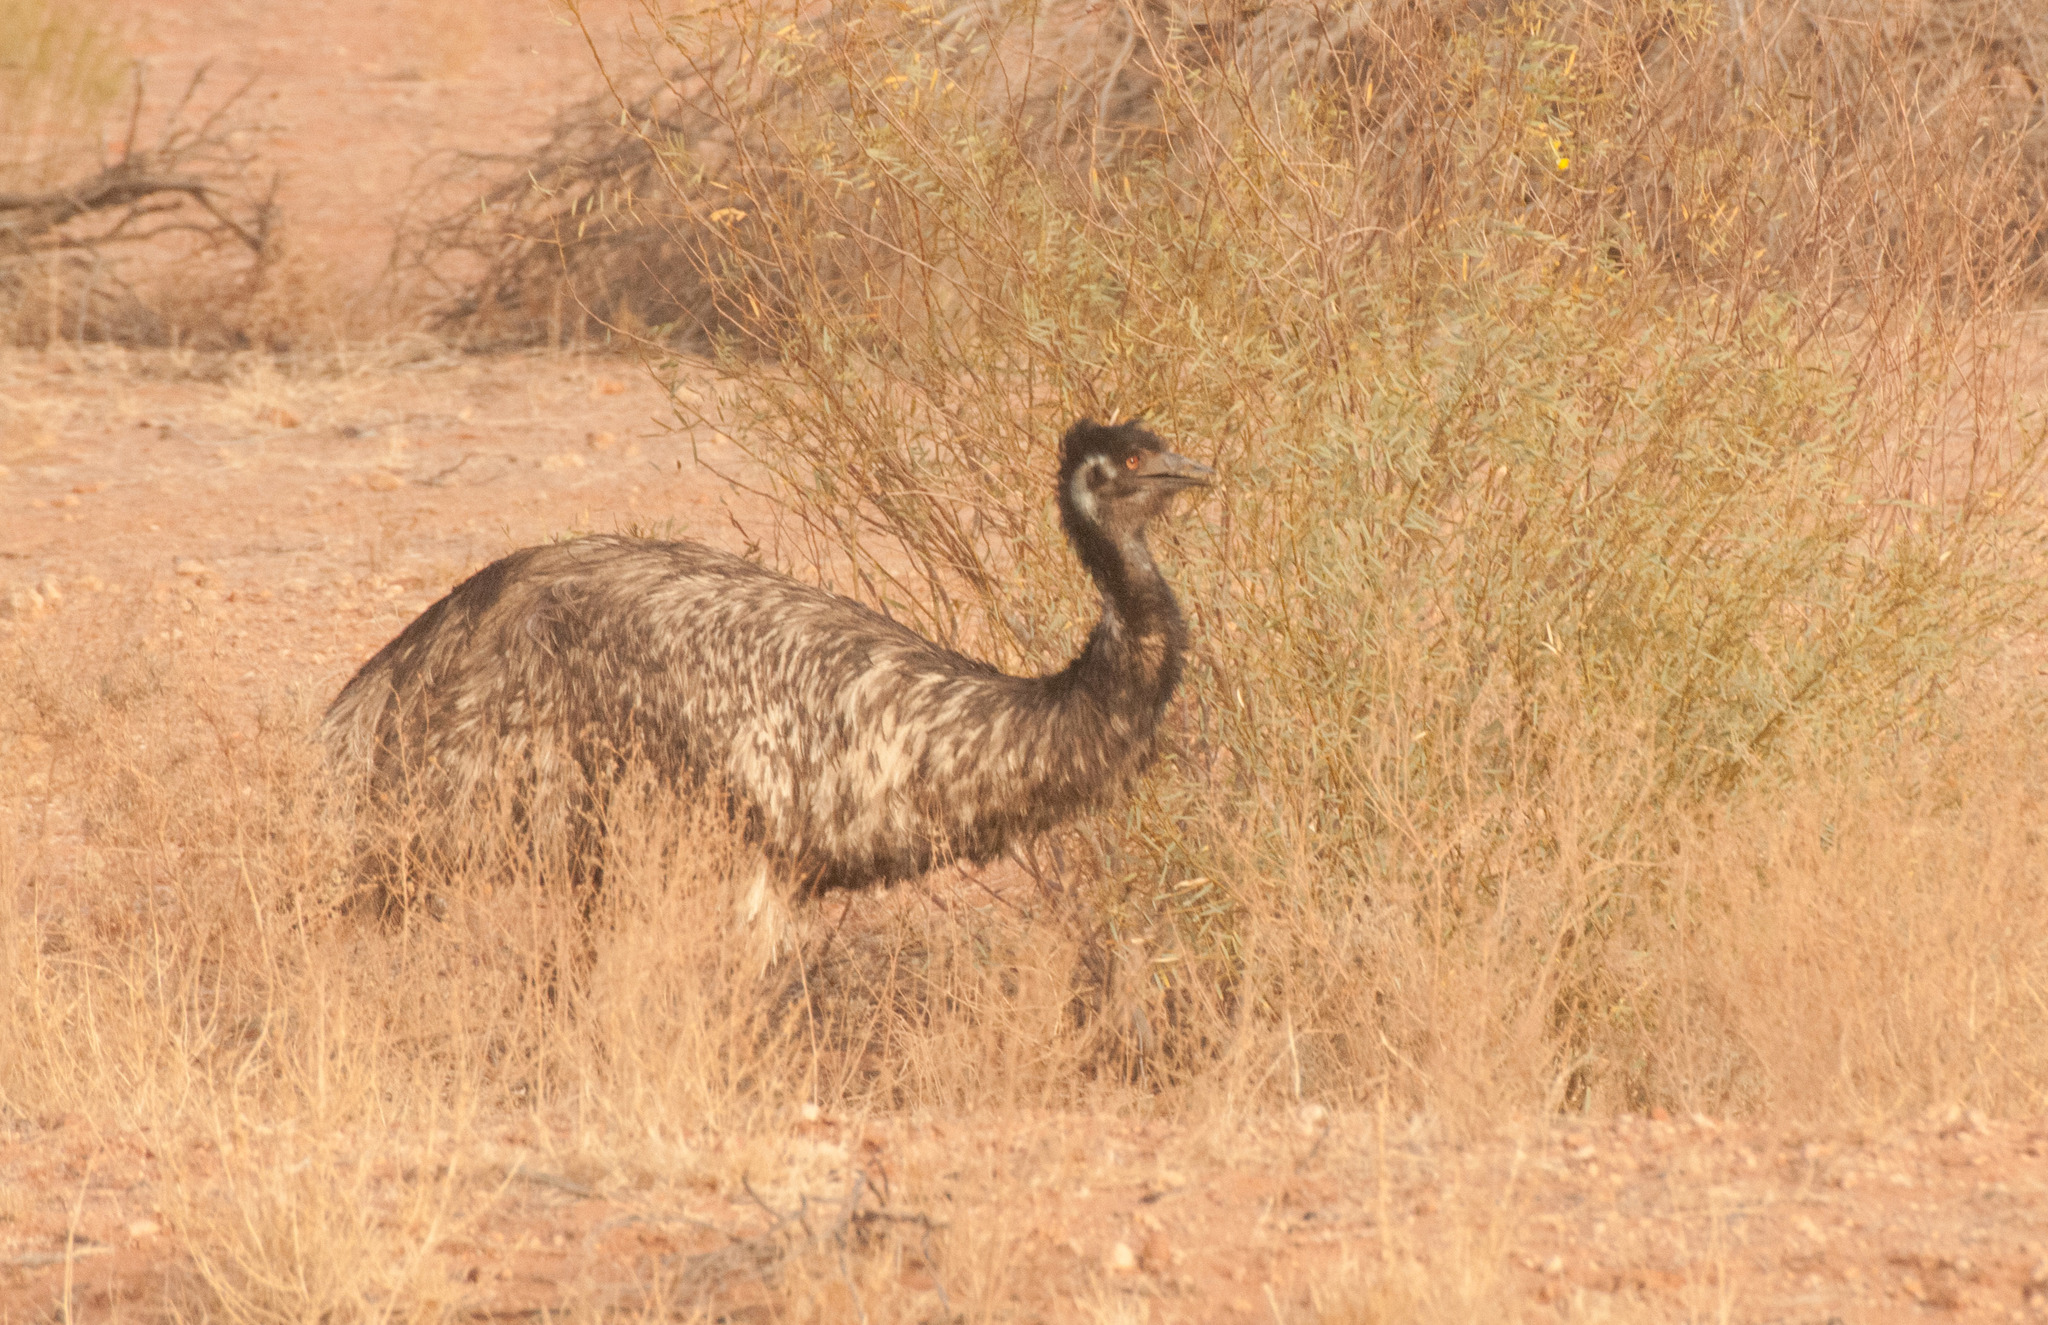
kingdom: Animalia
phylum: Chordata
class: Aves
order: Casuariiformes
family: Dromaiidae
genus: Dromaius
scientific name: Dromaius novaehollandiae
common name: Emu
